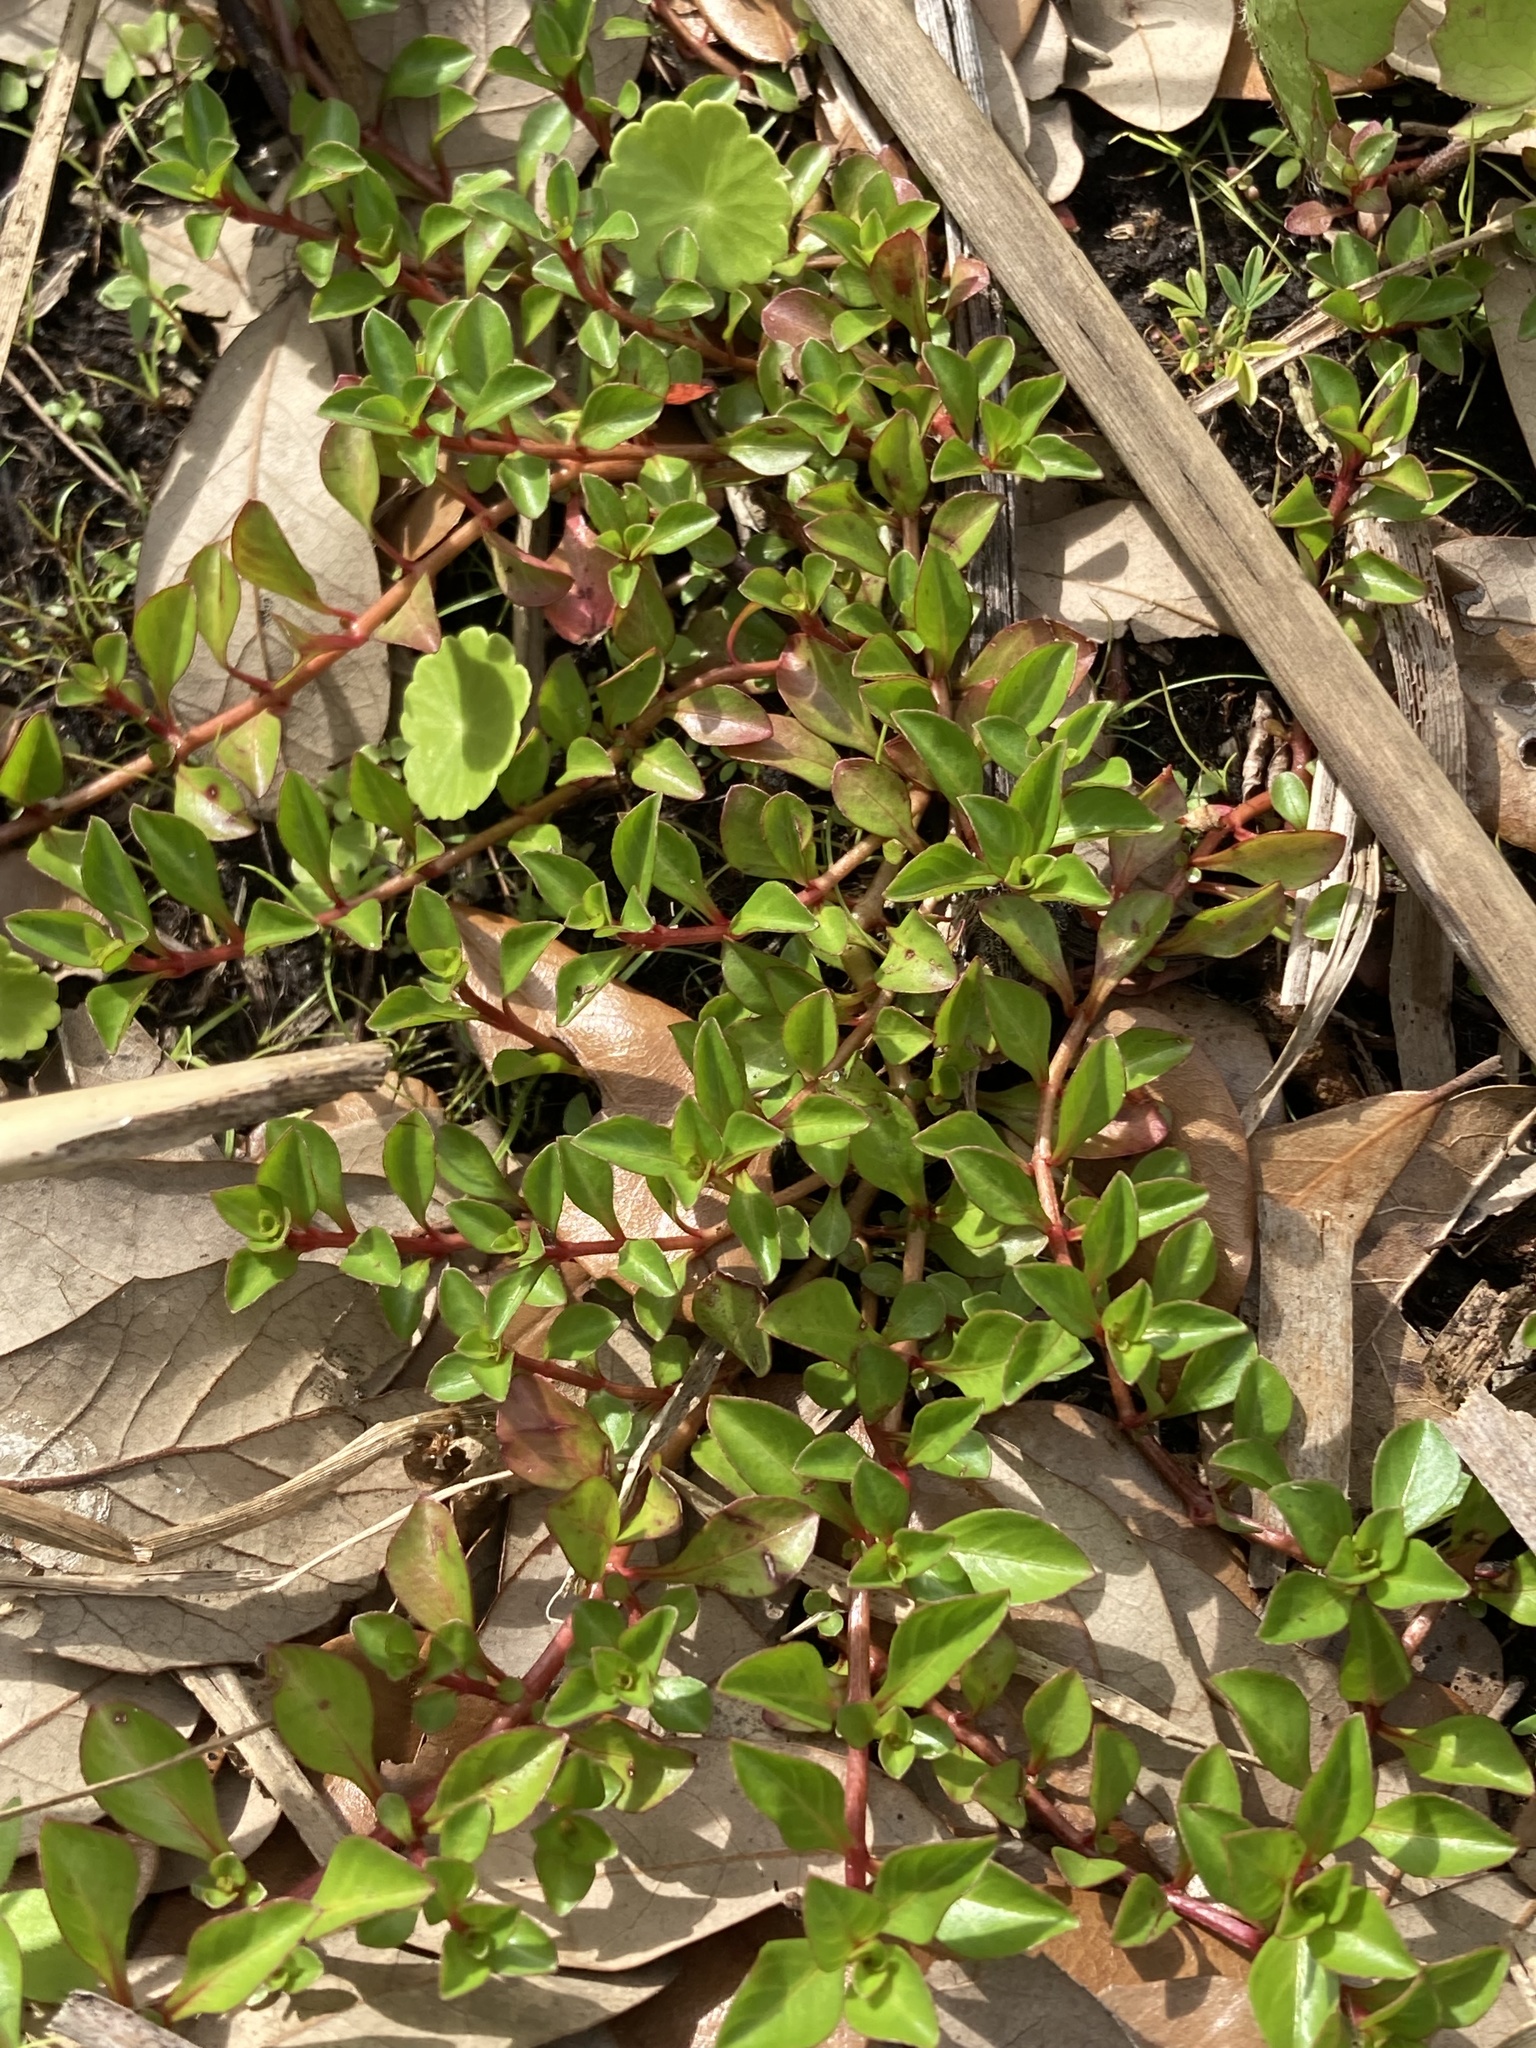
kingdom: Plantae
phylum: Tracheophyta
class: Magnoliopsida
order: Myrtales
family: Onagraceae
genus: Ludwigia
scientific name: Ludwigia repens
